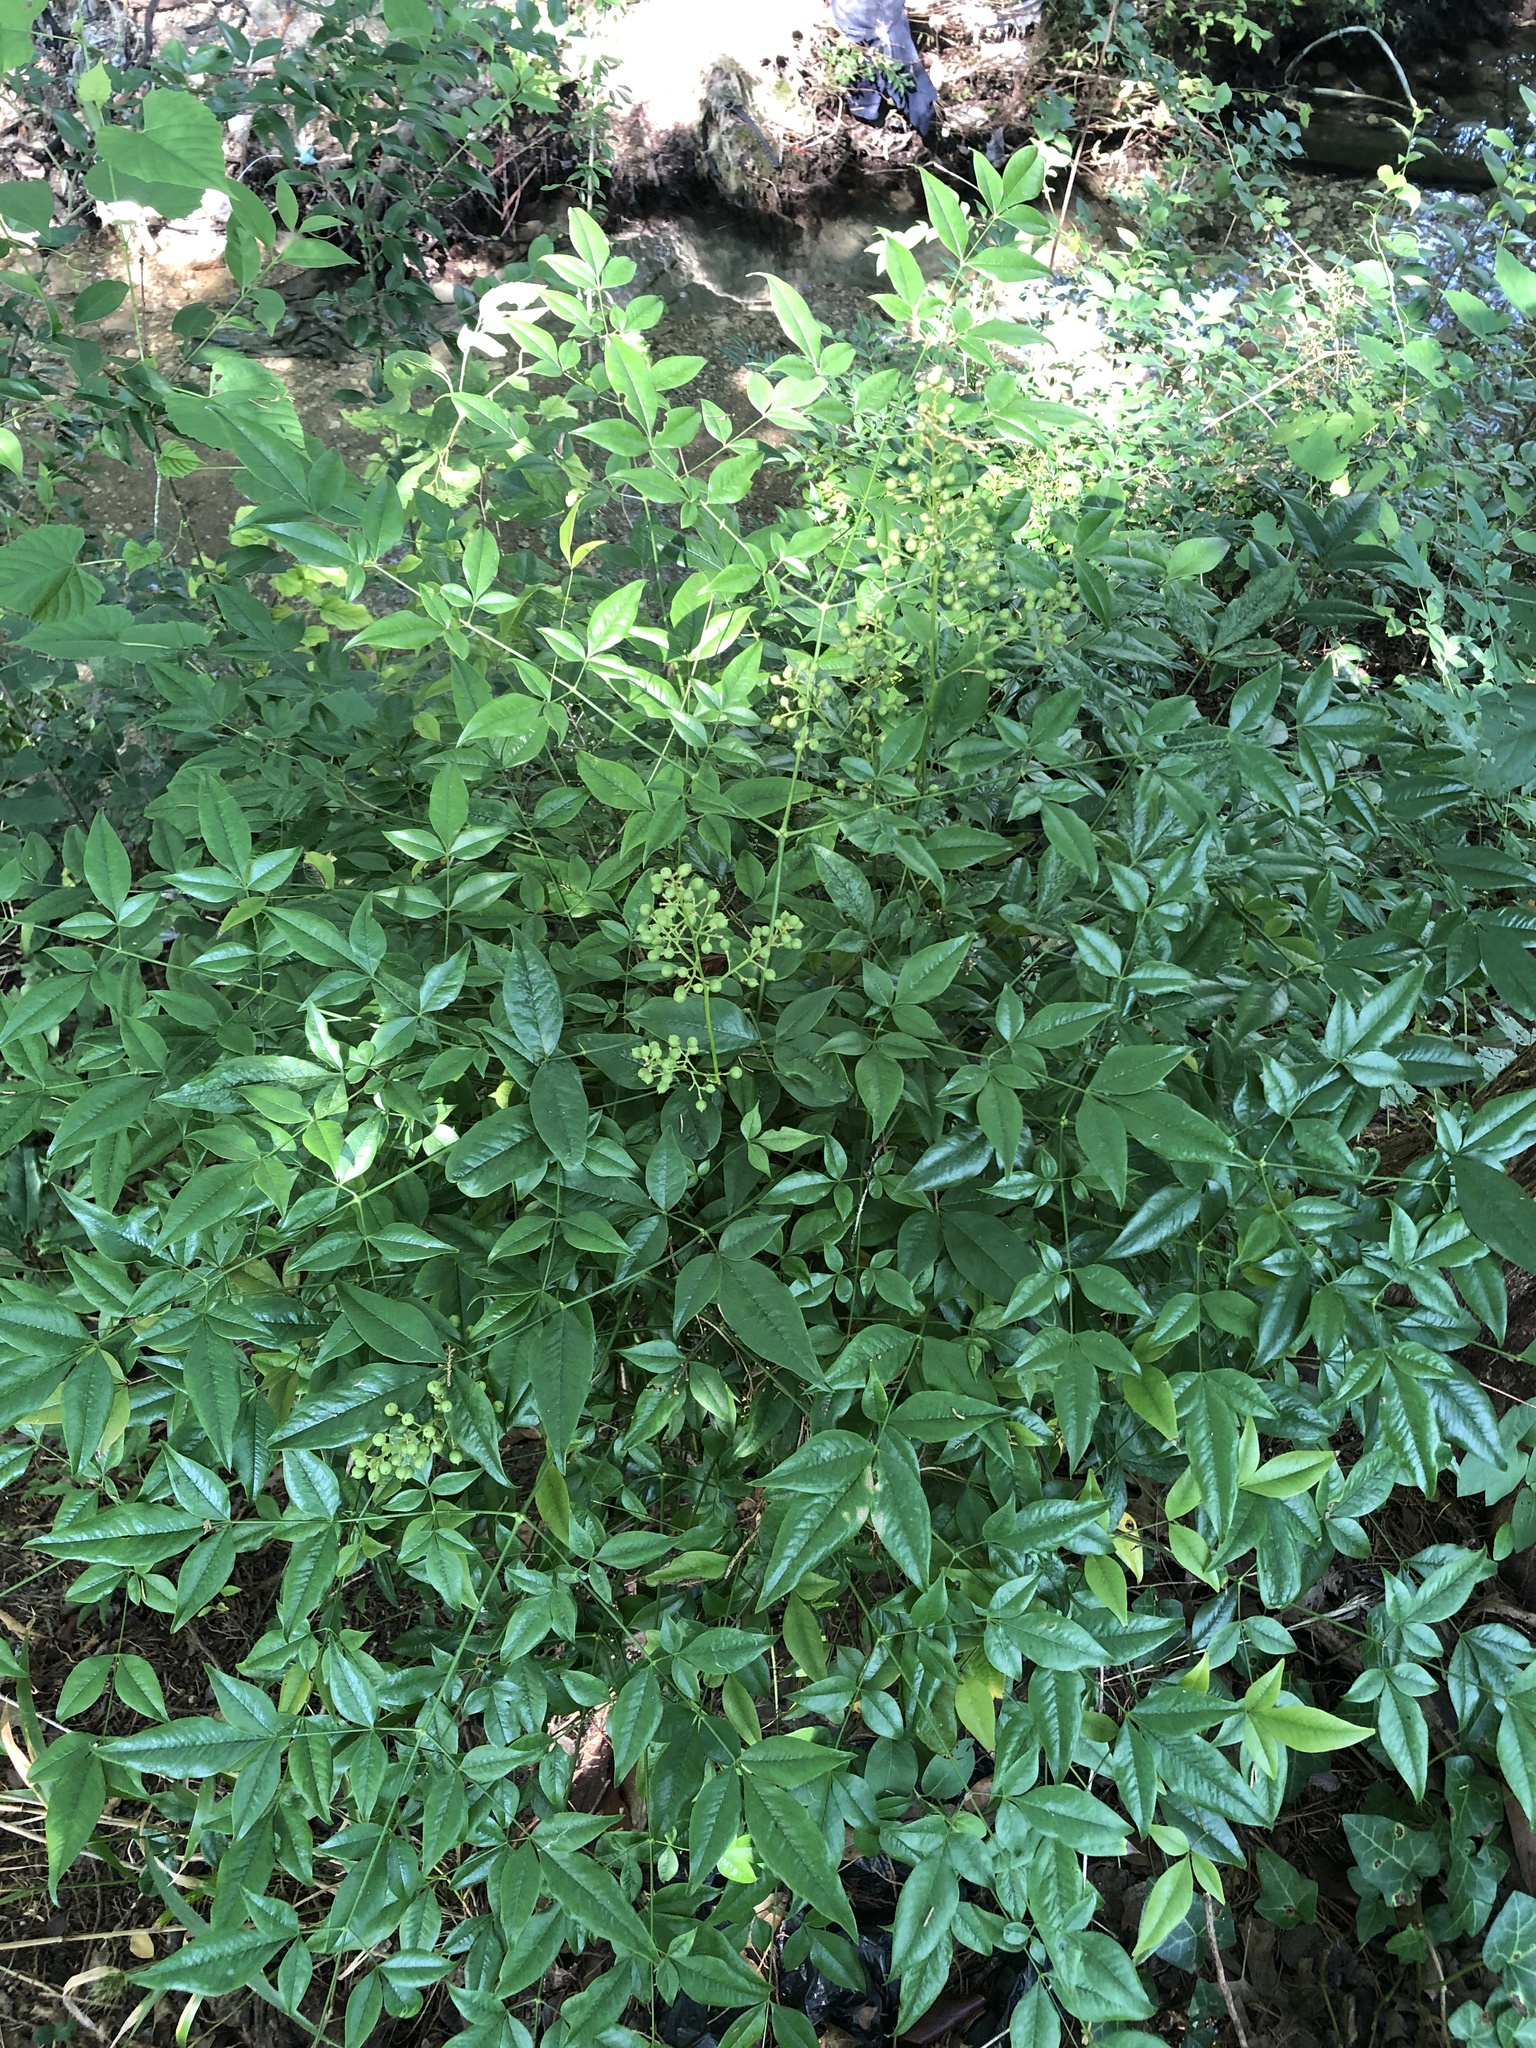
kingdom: Plantae
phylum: Tracheophyta
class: Magnoliopsida
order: Ranunculales
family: Berberidaceae
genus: Nandina
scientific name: Nandina domestica
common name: Sacred bamboo
